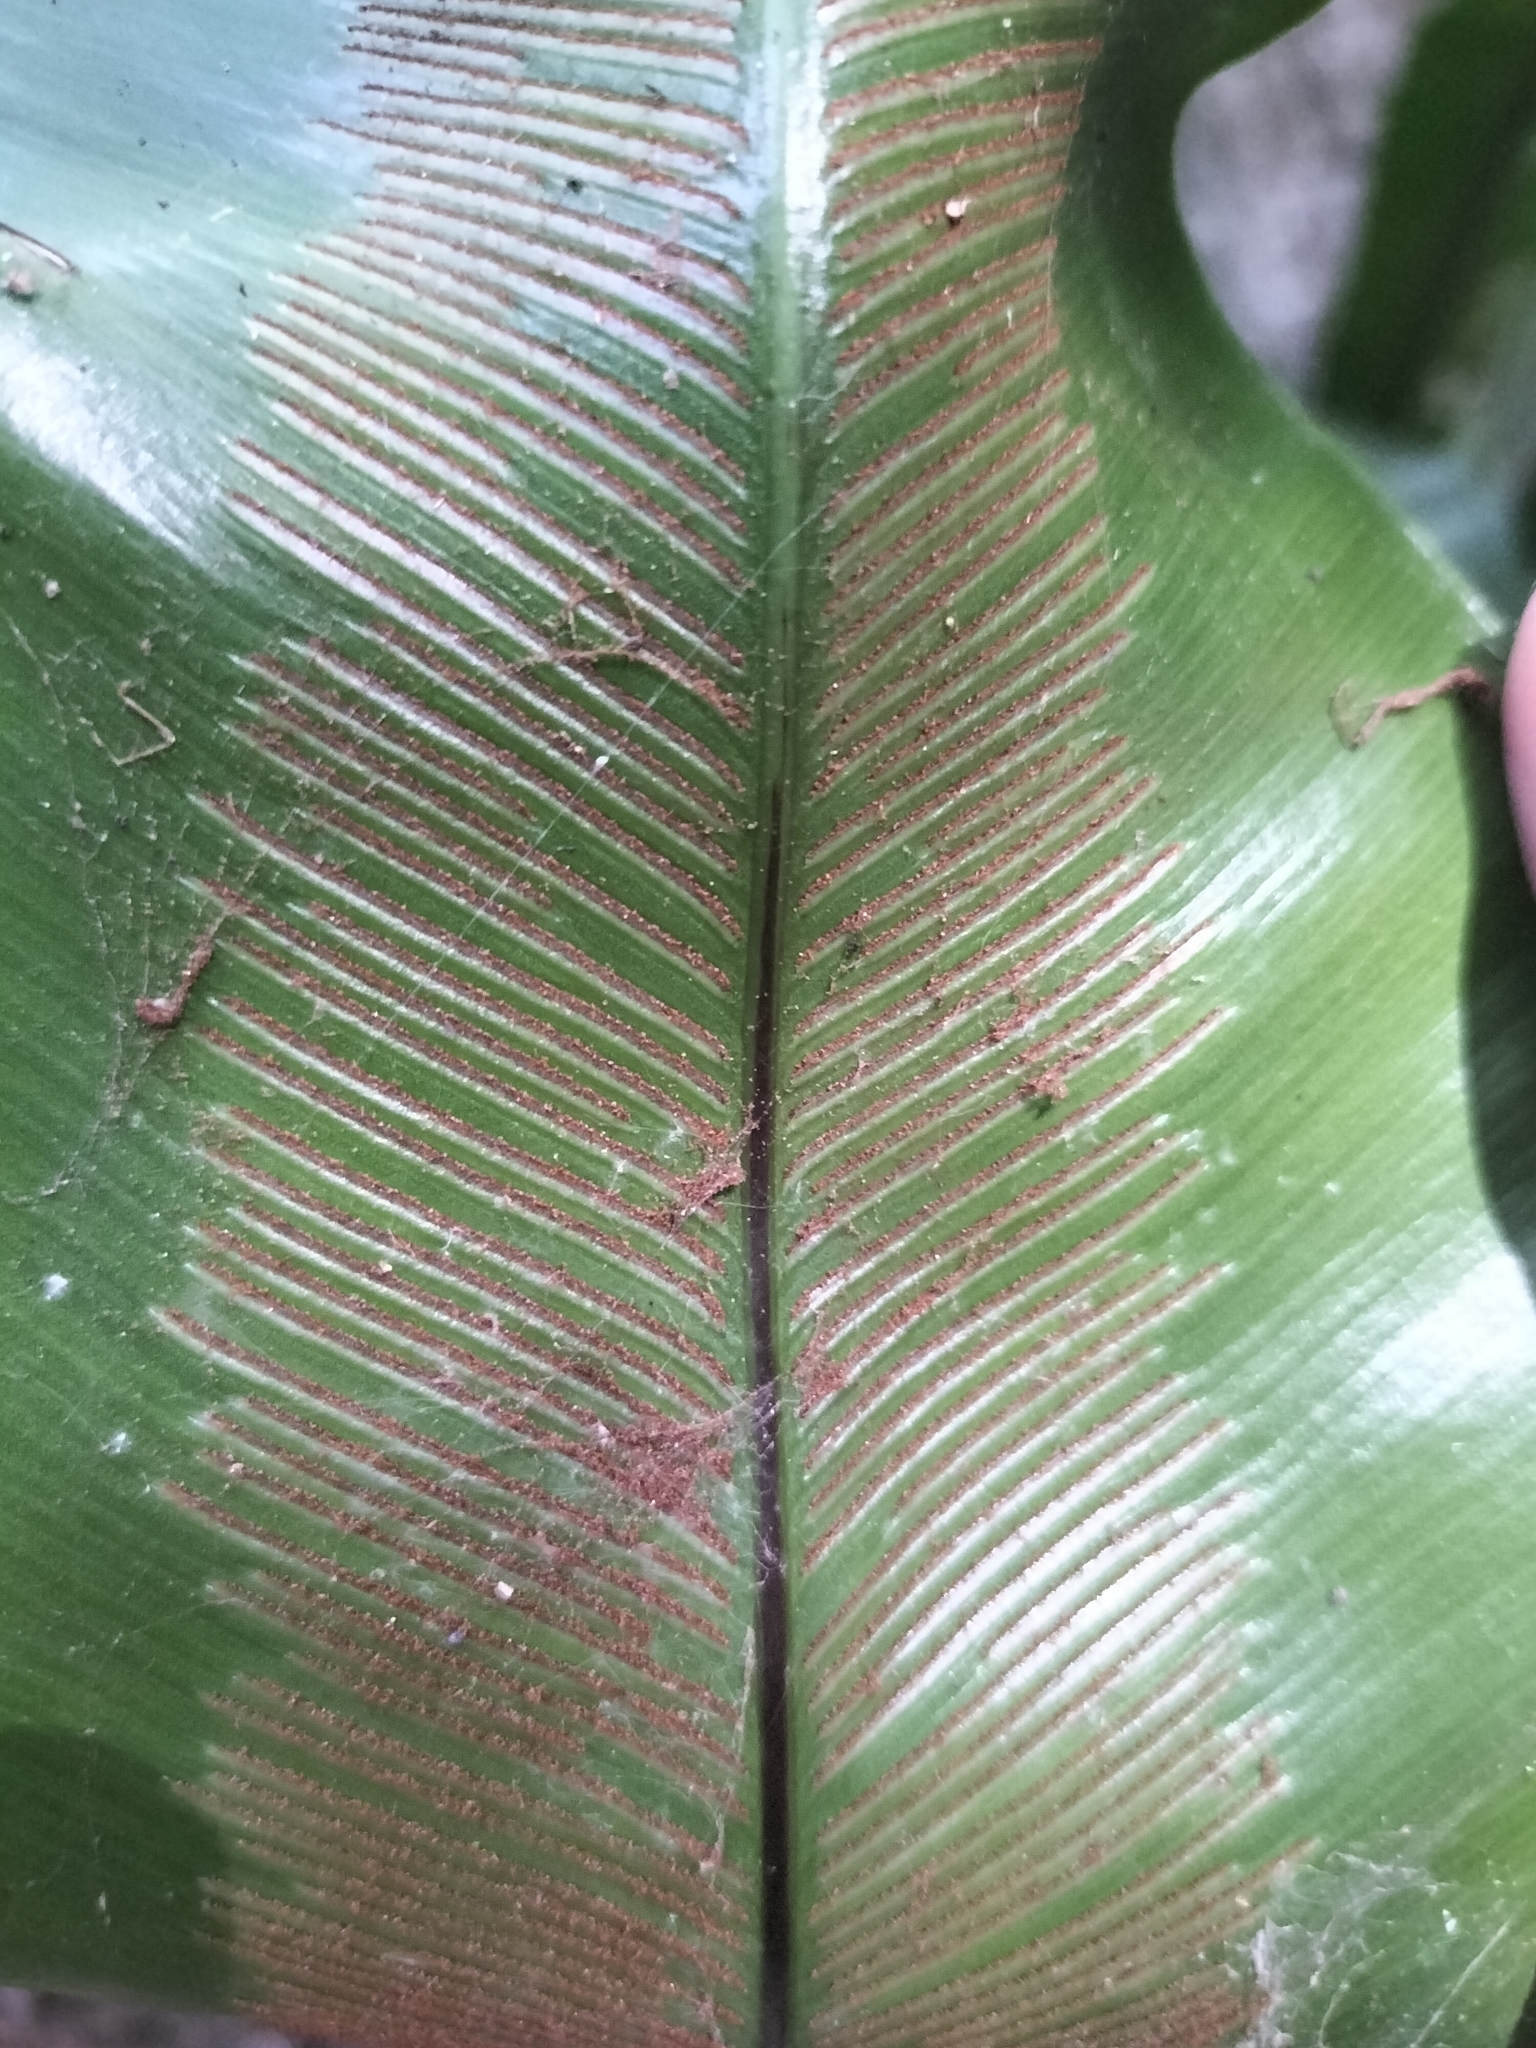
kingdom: Plantae
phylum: Tracheophyta
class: Polypodiopsida
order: Polypodiales
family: Aspleniaceae
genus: Asplenium
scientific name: Asplenium australasicum
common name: Bird's-nest fern
